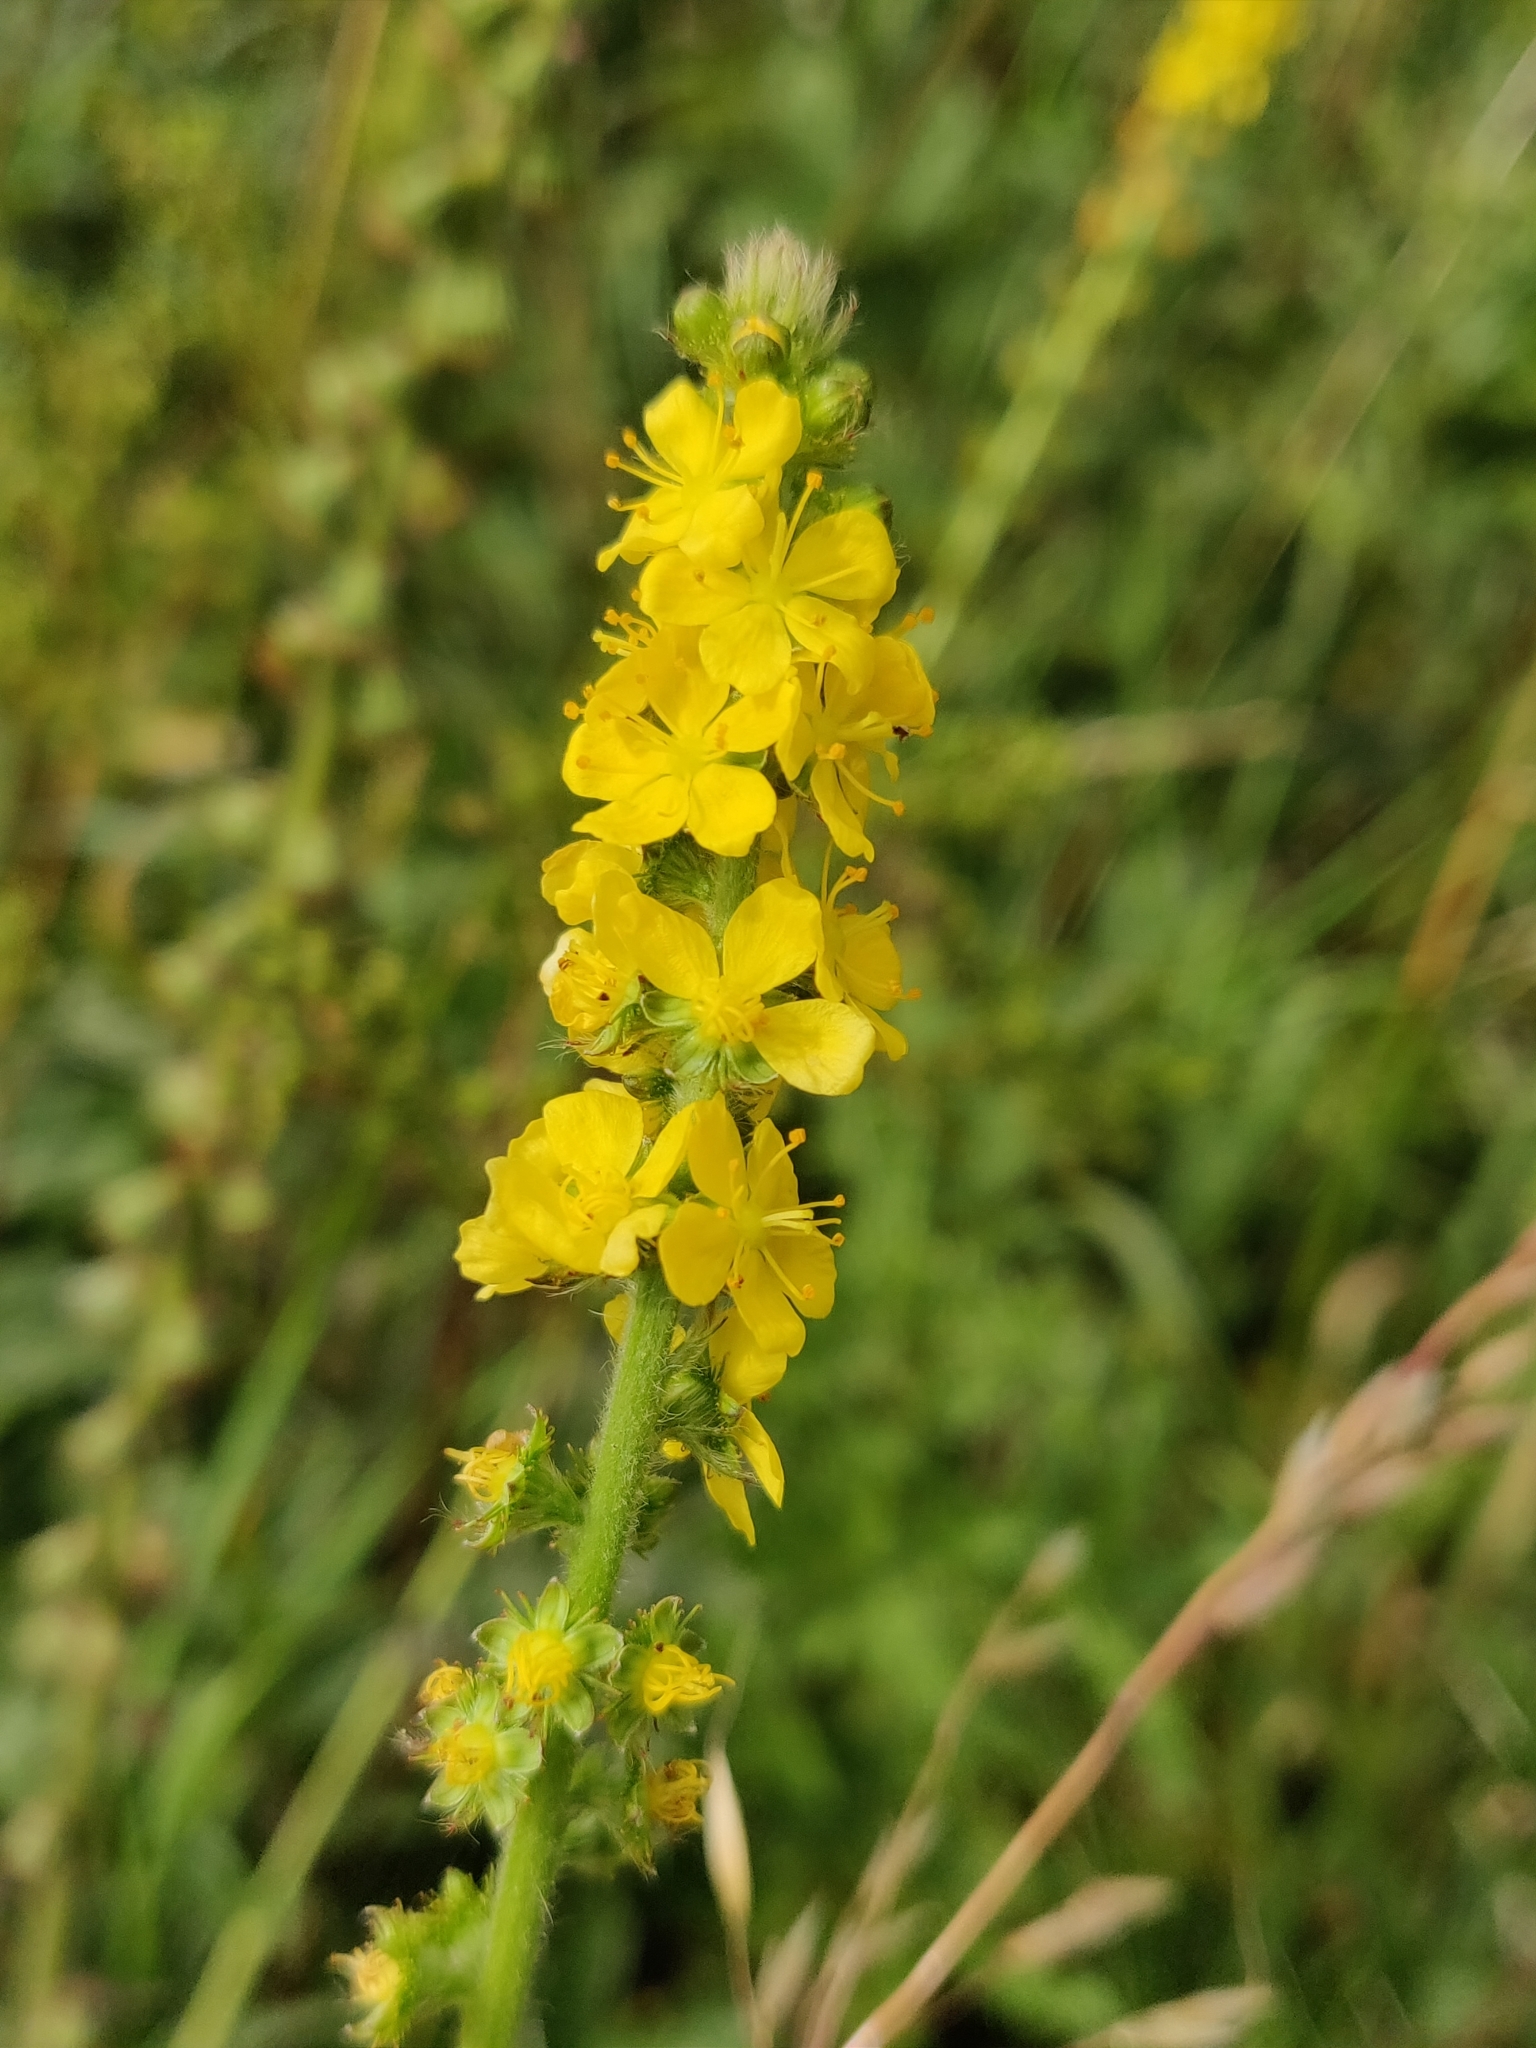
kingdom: Plantae
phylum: Tracheophyta
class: Magnoliopsida
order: Rosales
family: Rosaceae
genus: Agrimonia
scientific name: Agrimonia eupatoria
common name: Agrimony
